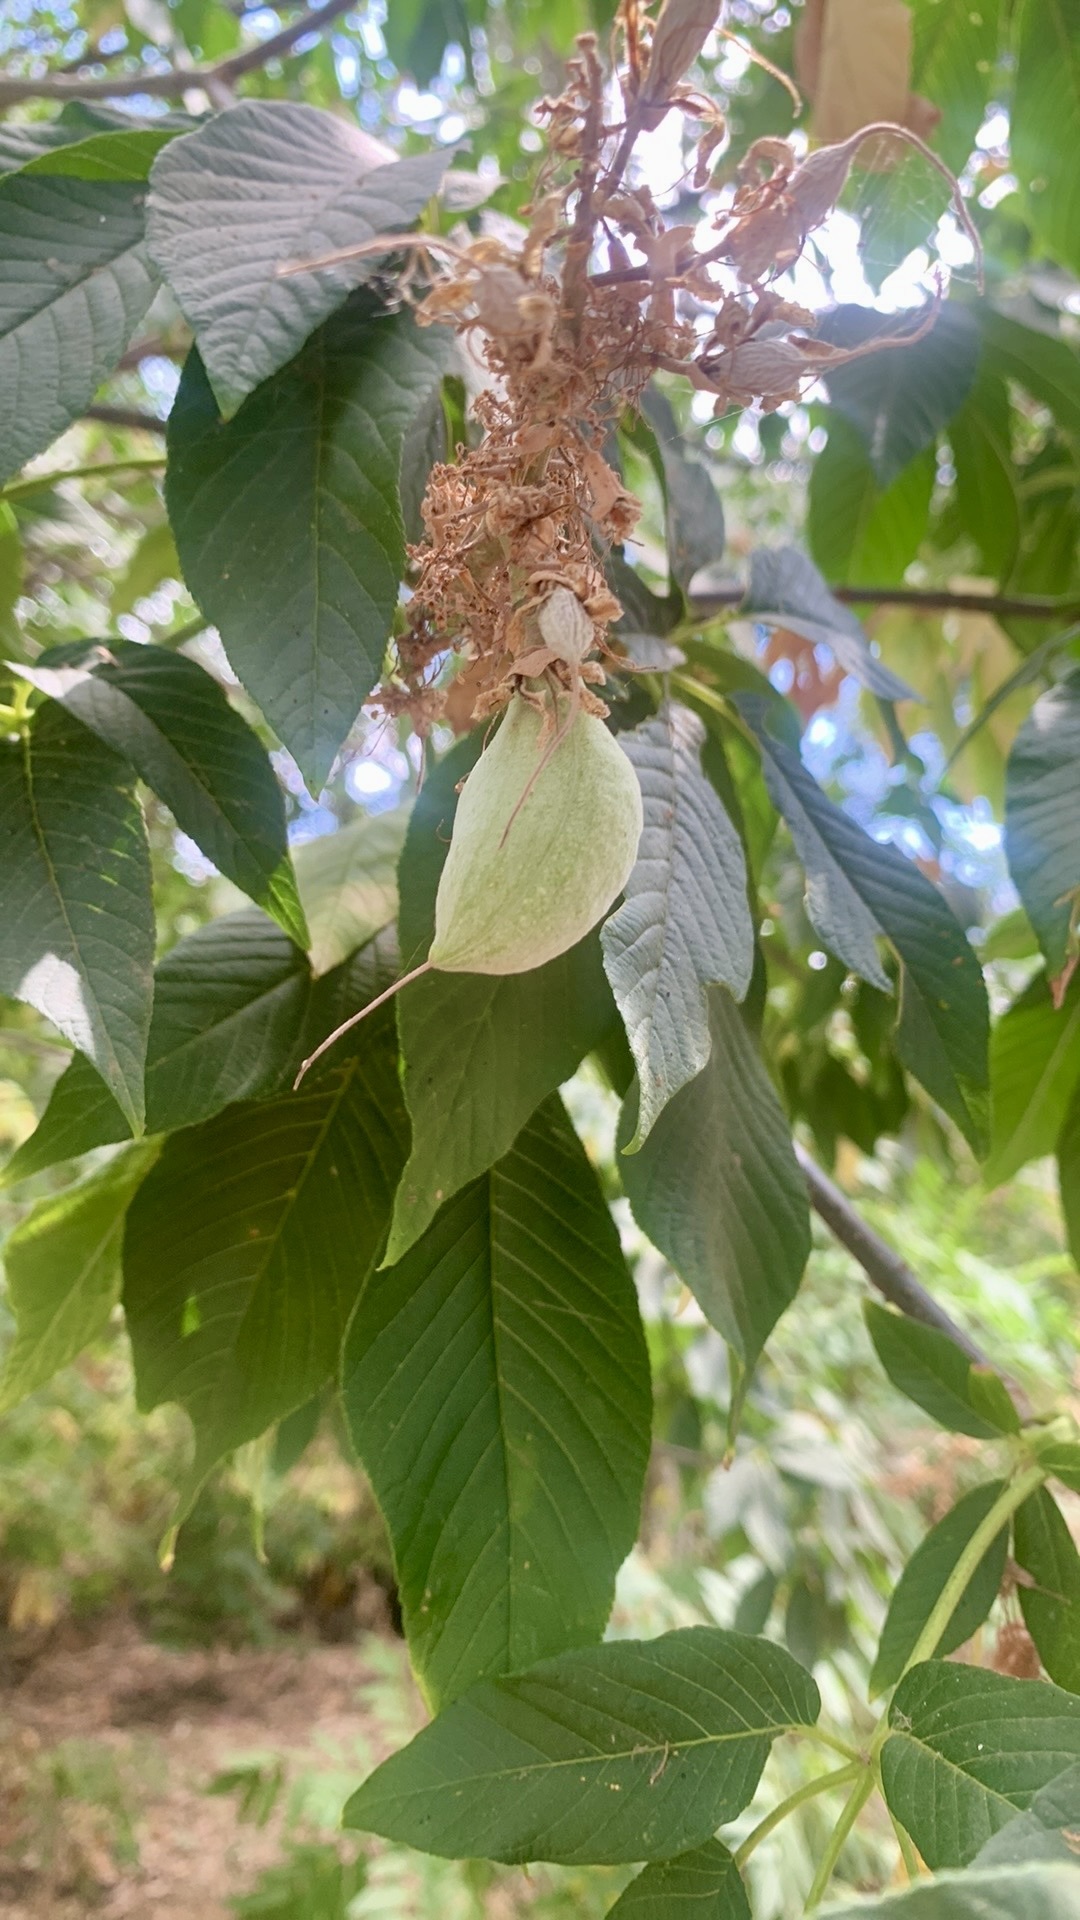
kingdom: Plantae
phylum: Tracheophyta
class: Magnoliopsida
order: Sapindales
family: Sapindaceae
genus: Aesculus
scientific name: Aesculus californica
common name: California buckeye
